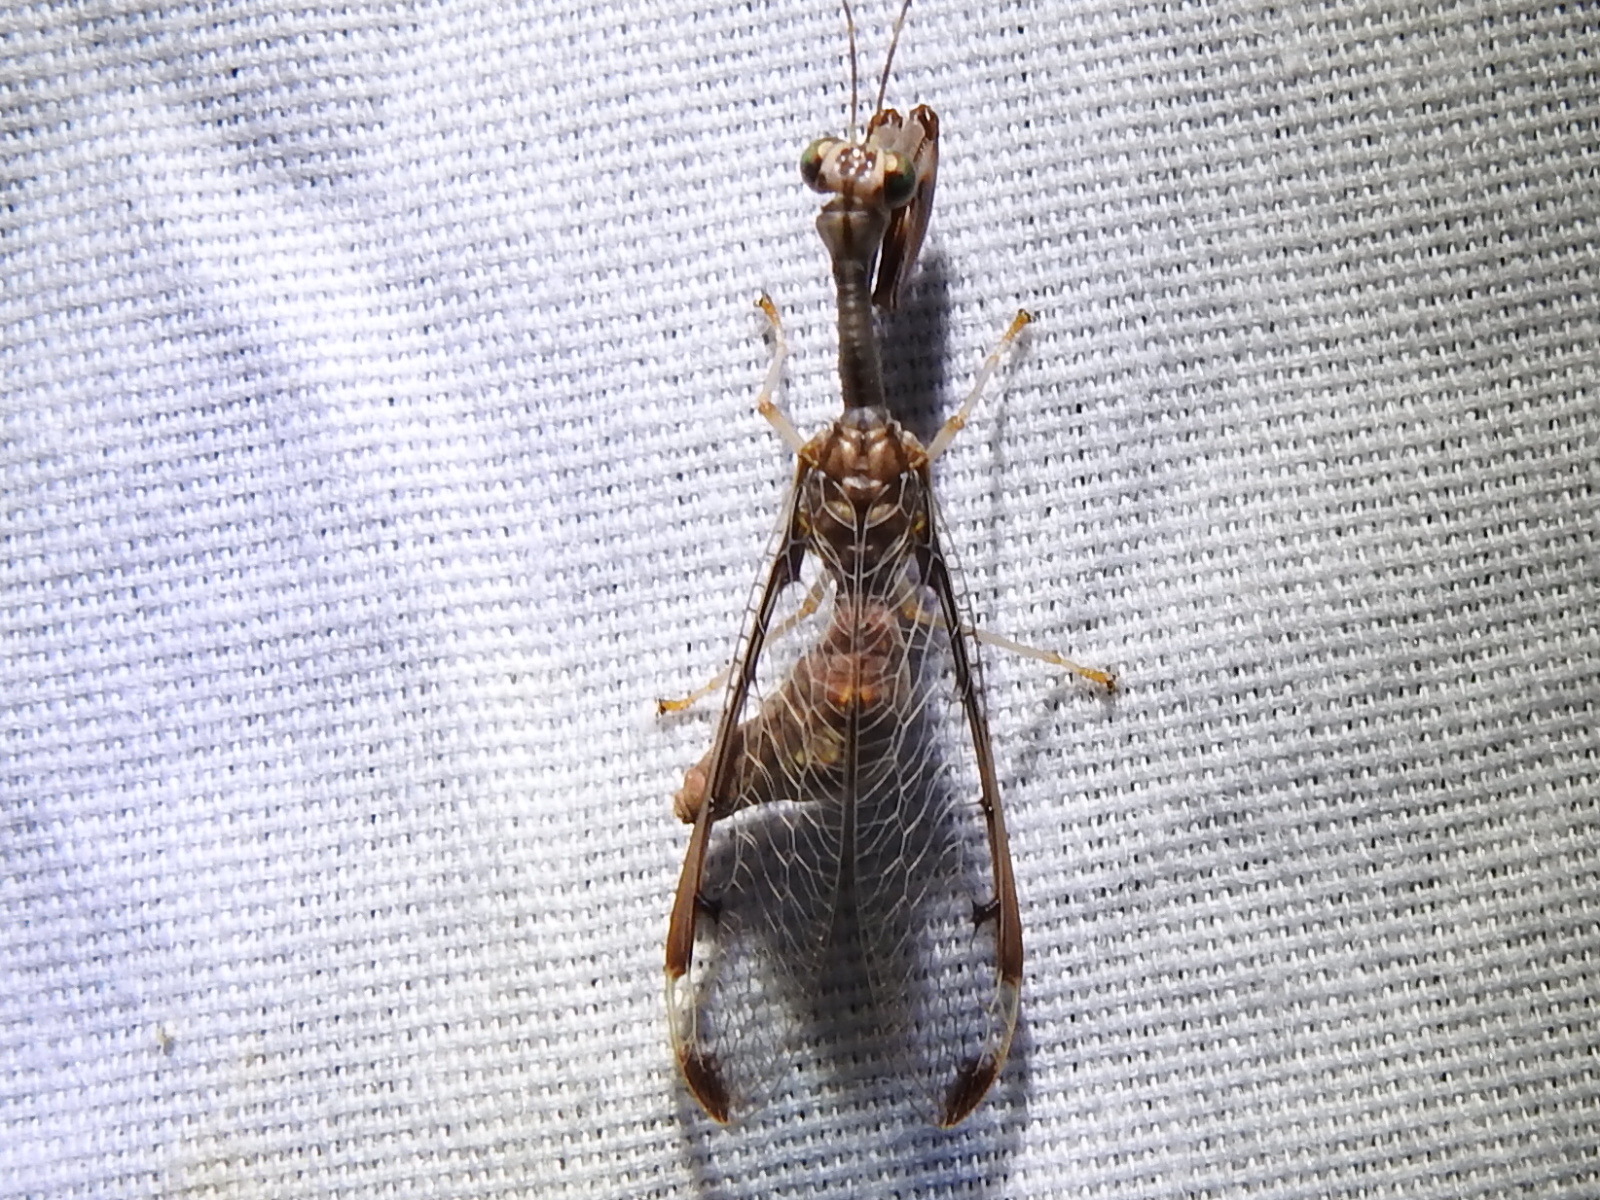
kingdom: Animalia
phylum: Arthropoda
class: Insecta
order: Neuroptera
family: Mantispidae
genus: Dicromantispa
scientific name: Dicromantispa interrupta
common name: Four-spotted mantidfly
